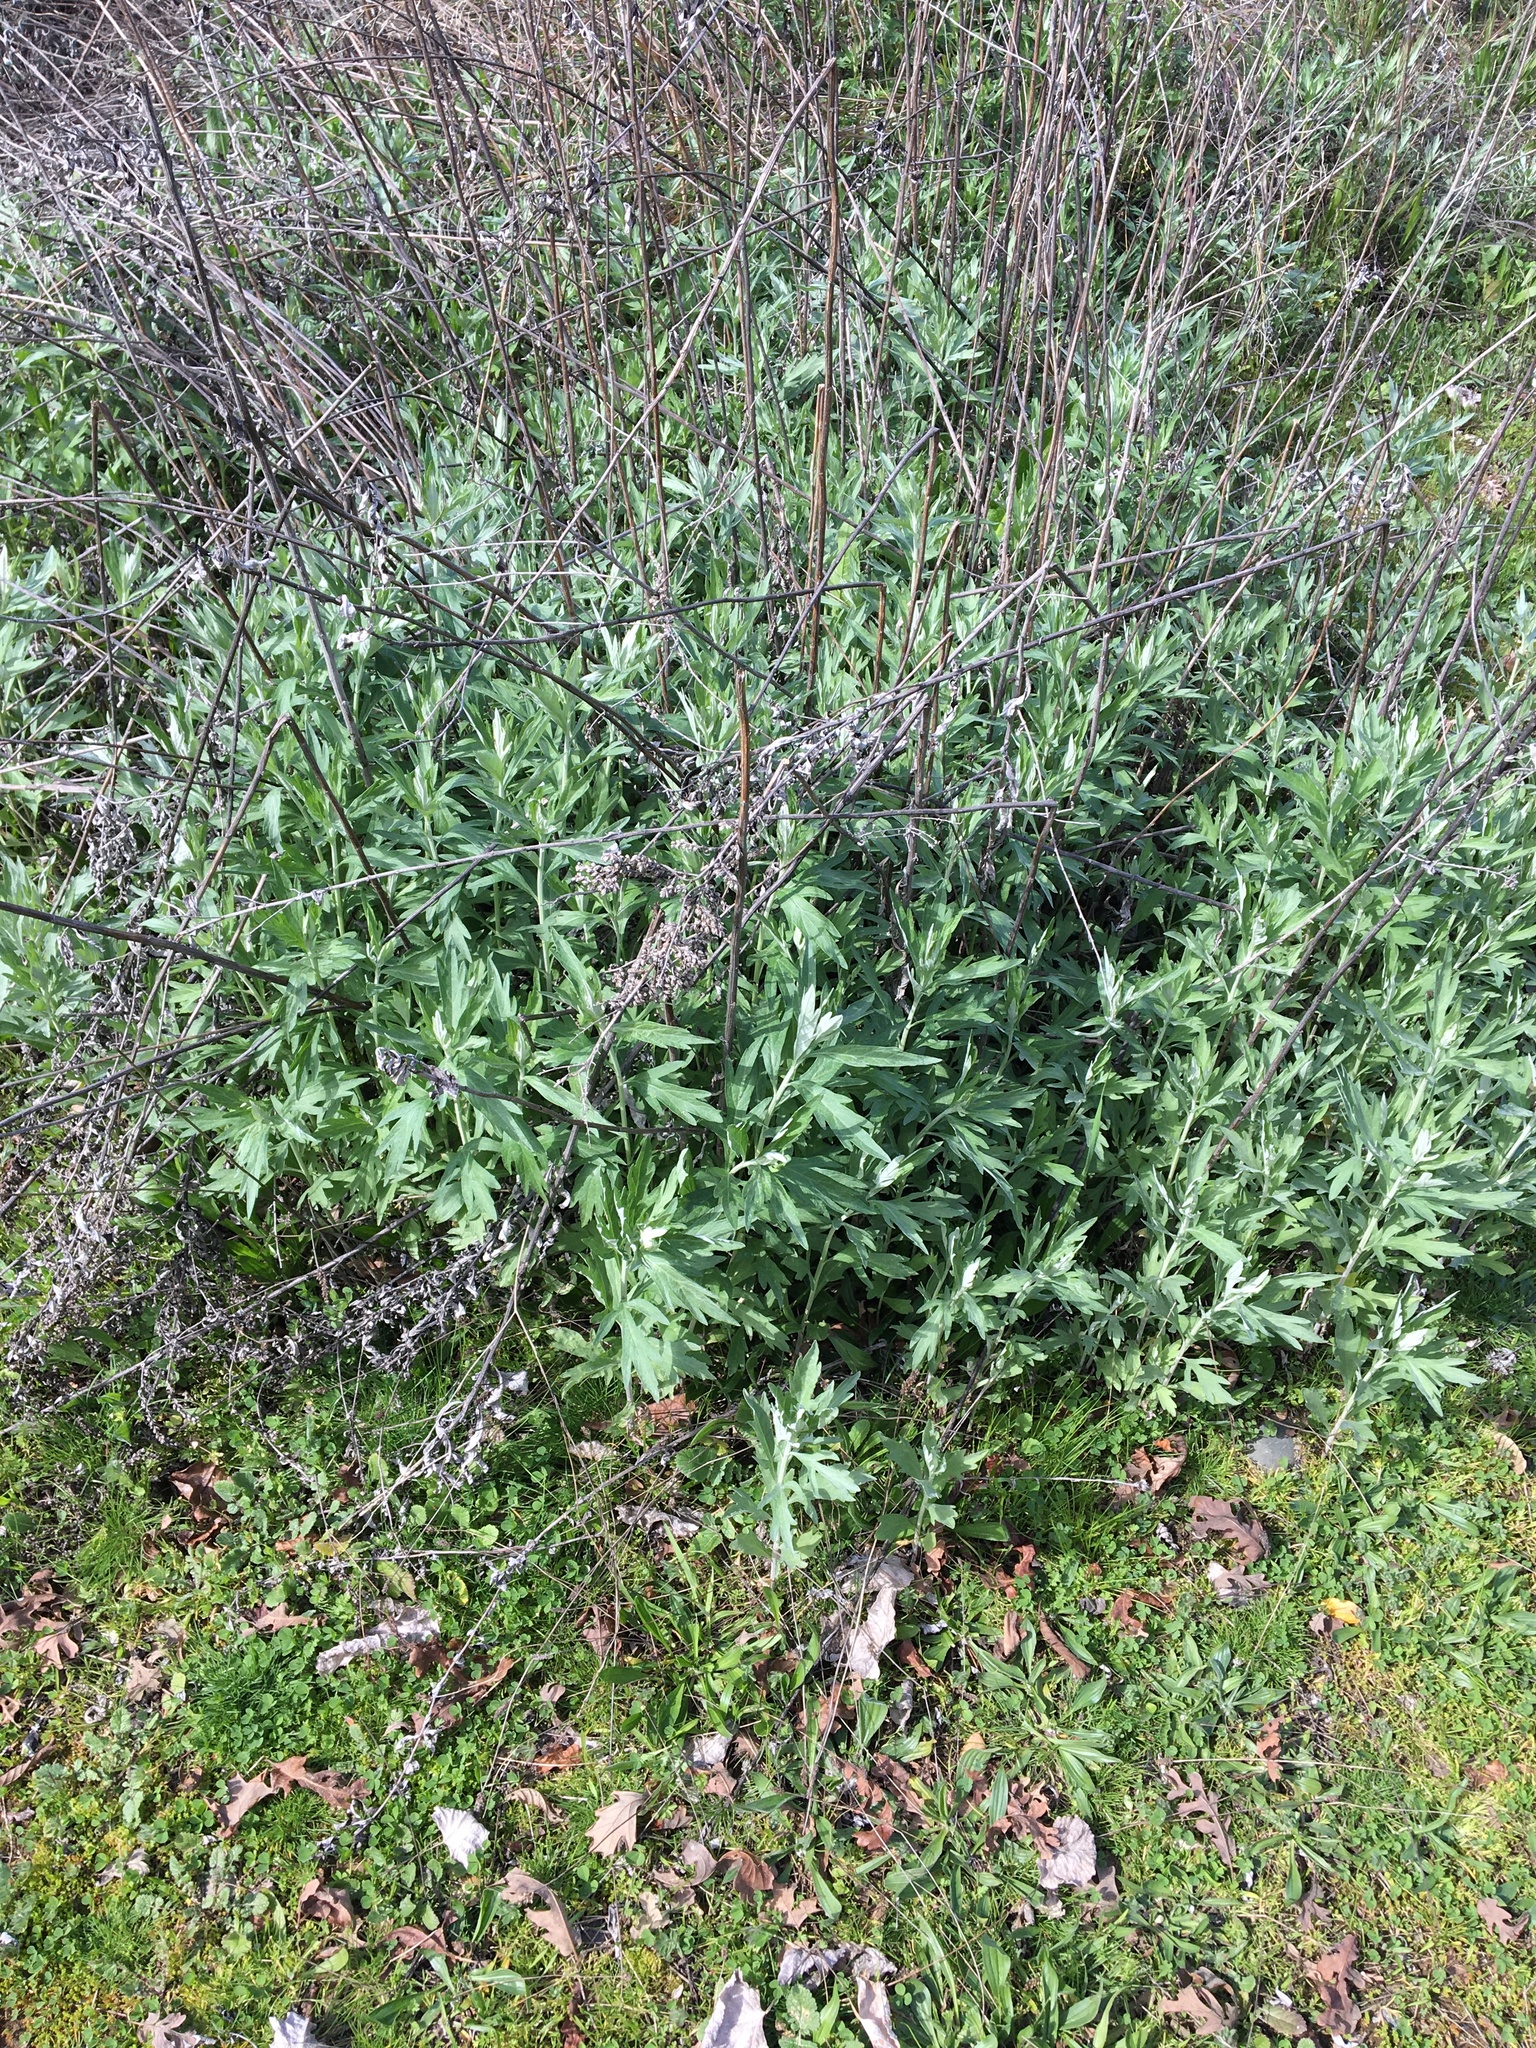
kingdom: Plantae
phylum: Tracheophyta
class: Magnoliopsida
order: Asterales
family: Asteraceae
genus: Artemisia
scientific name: Artemisia douglasiana
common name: Northwest mugwort
